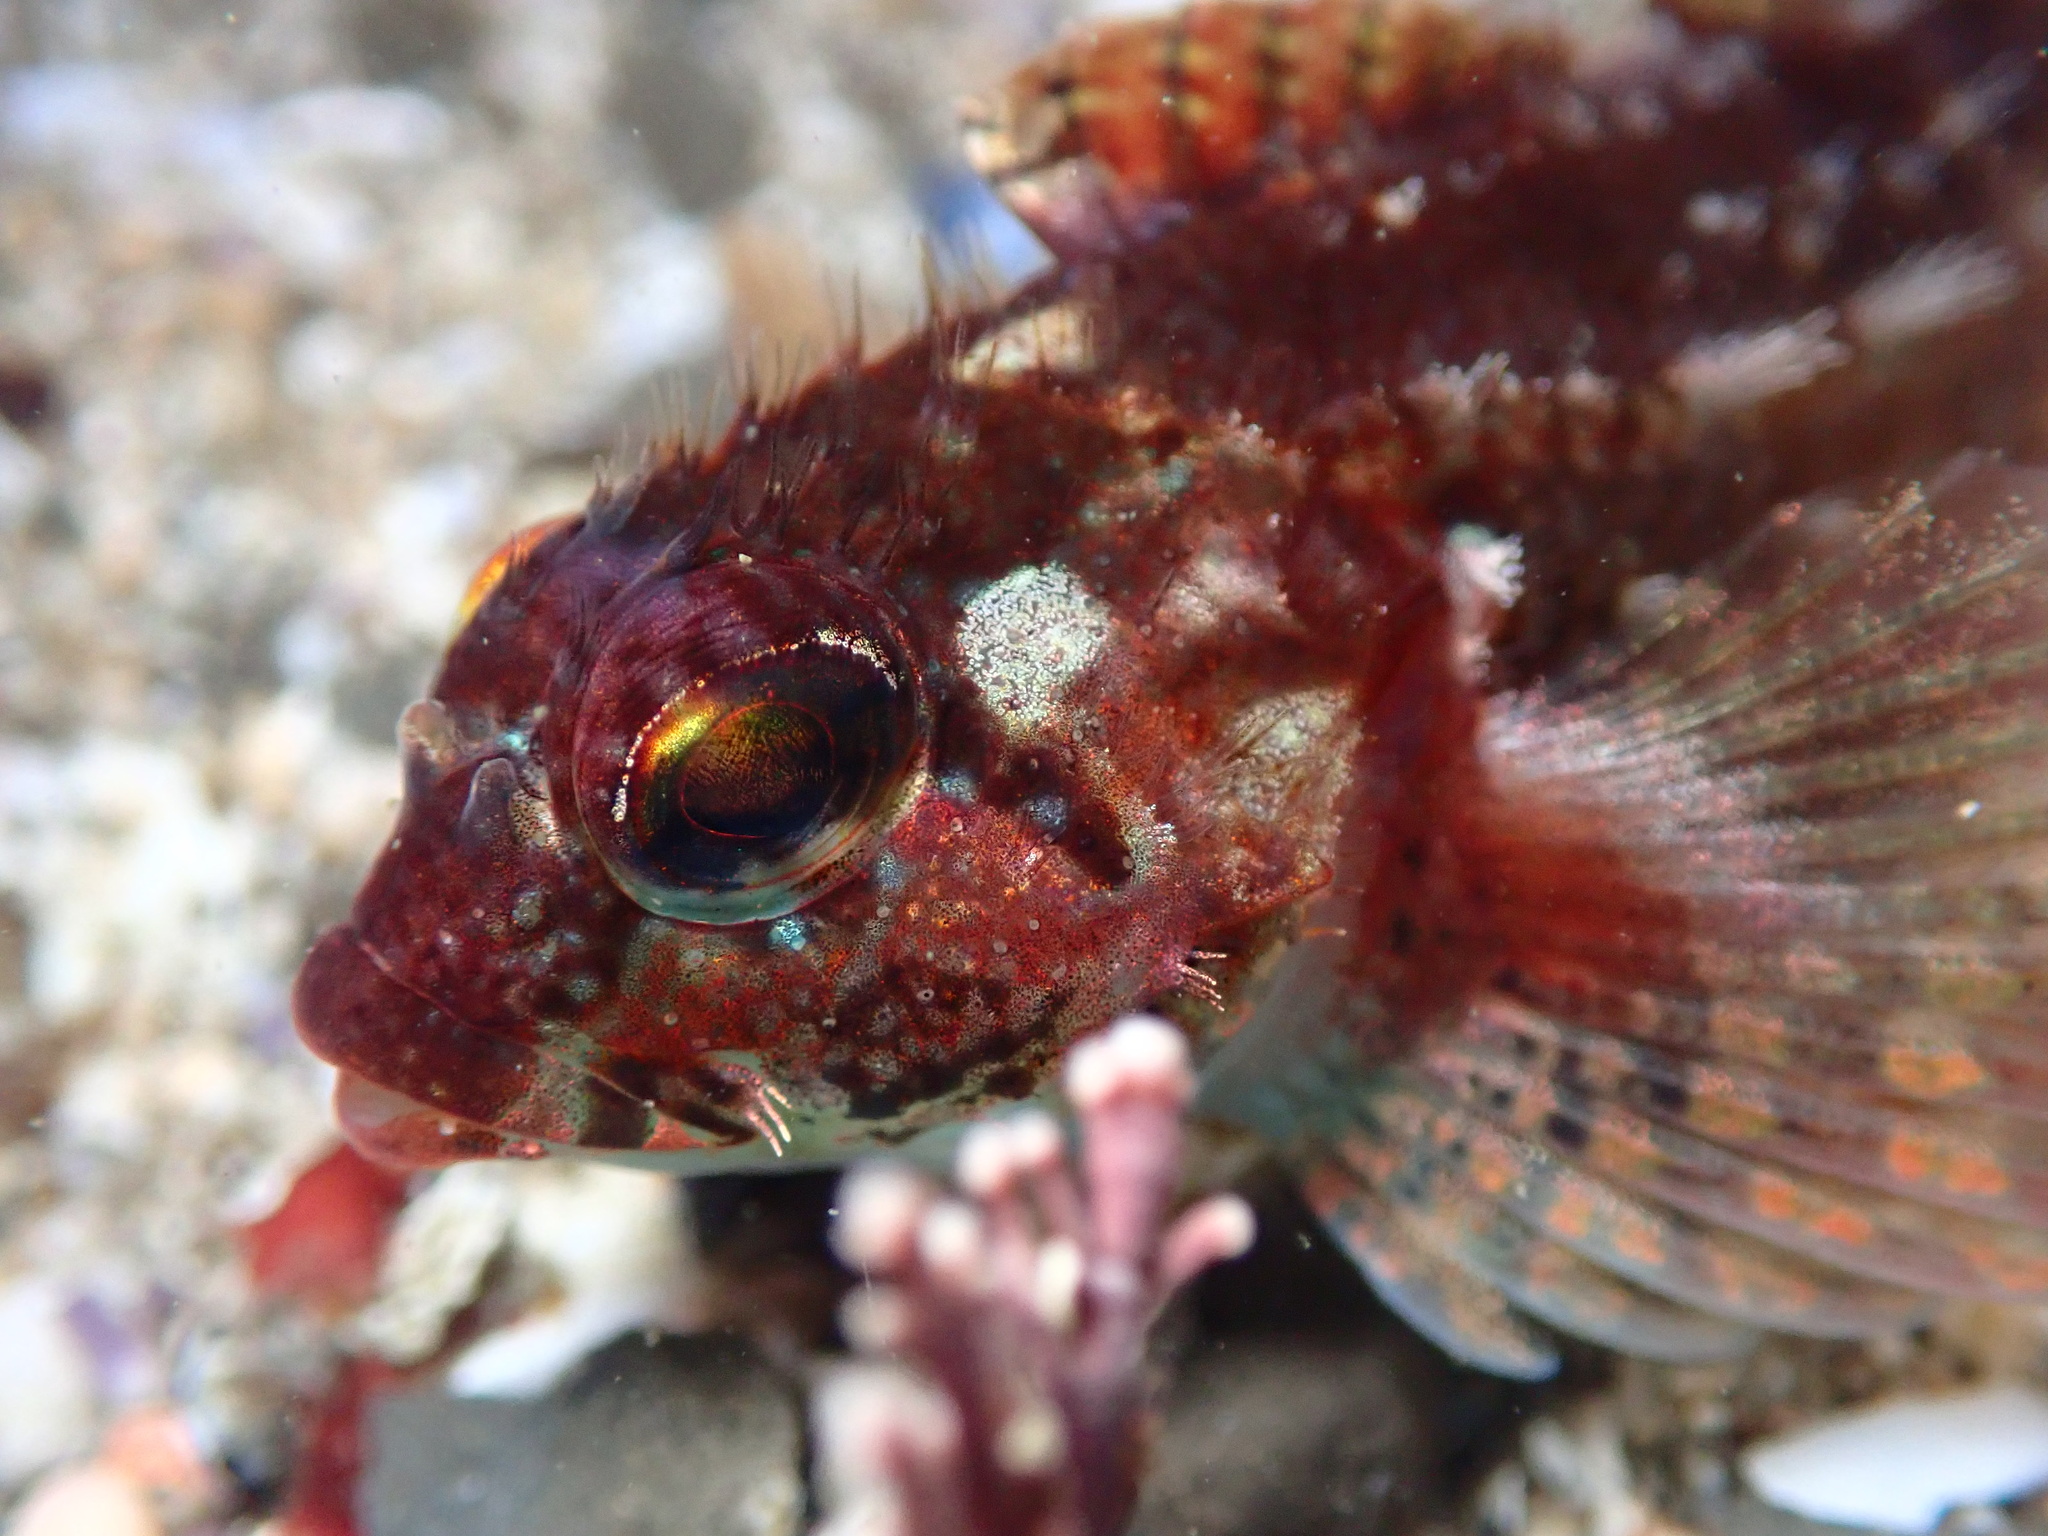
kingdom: Animalia
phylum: Chordata
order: Scorpaeniformes
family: Cottidae
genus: Oligocottus
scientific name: Oligocottus rubellio
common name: Rosy sculpin
